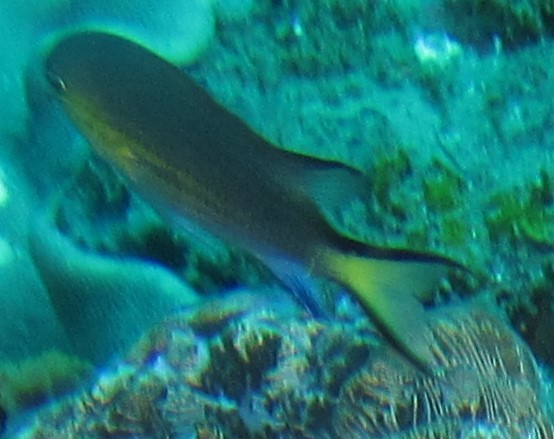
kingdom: Animalia
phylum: Chordata
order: Perciformes
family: Pomacentridae
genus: Chromis
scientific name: Chromis nigrura
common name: Blacktail chromis
